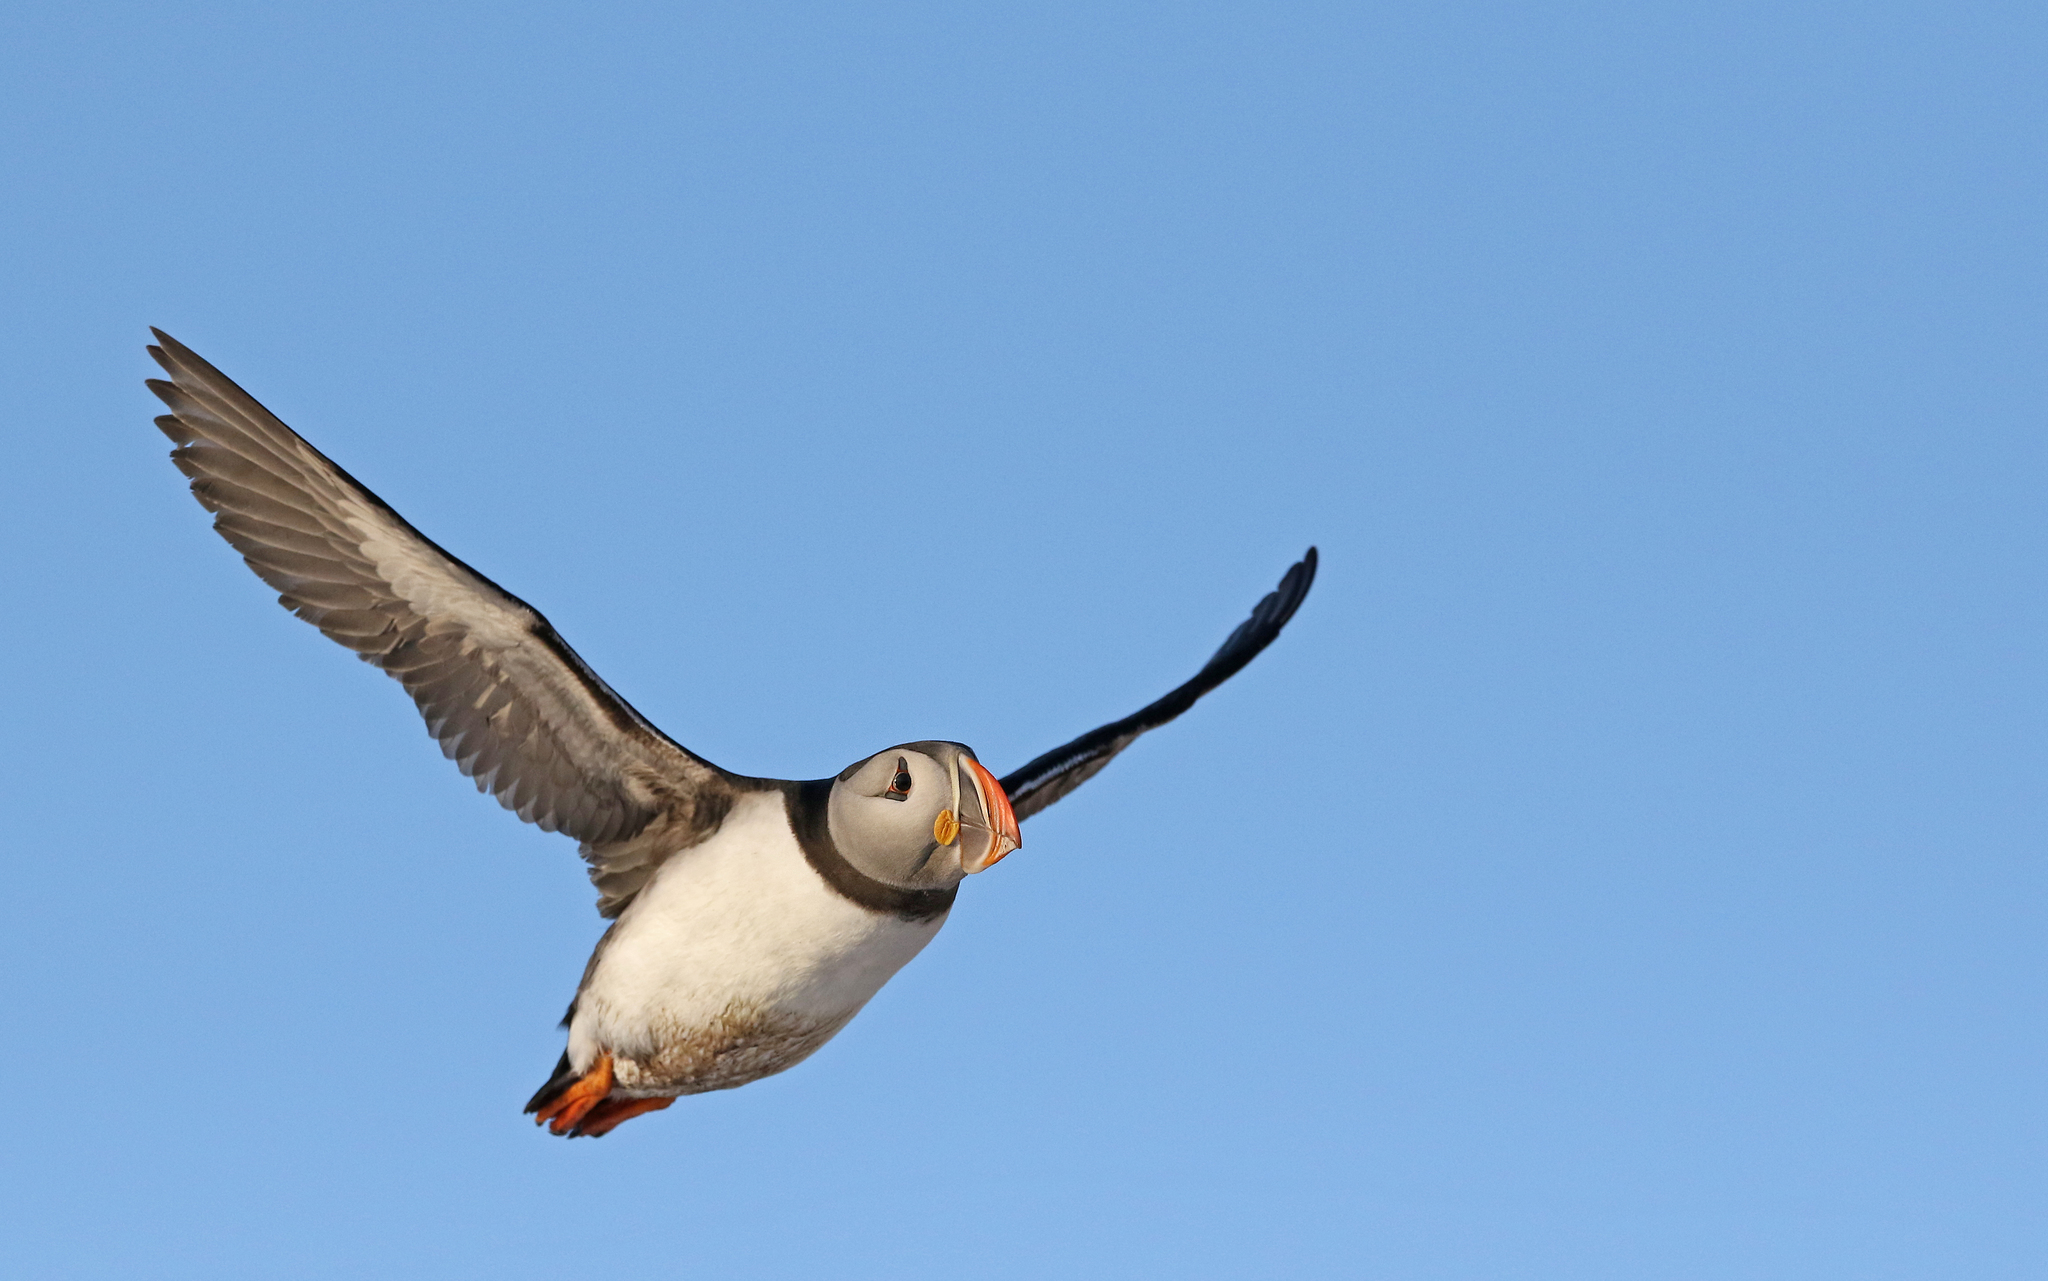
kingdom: Animalia
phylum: Chordata
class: Aves
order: Charadriiformes
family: Alcidae
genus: Fratercula
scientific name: Fratercula arctica
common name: Atlantic puffin
